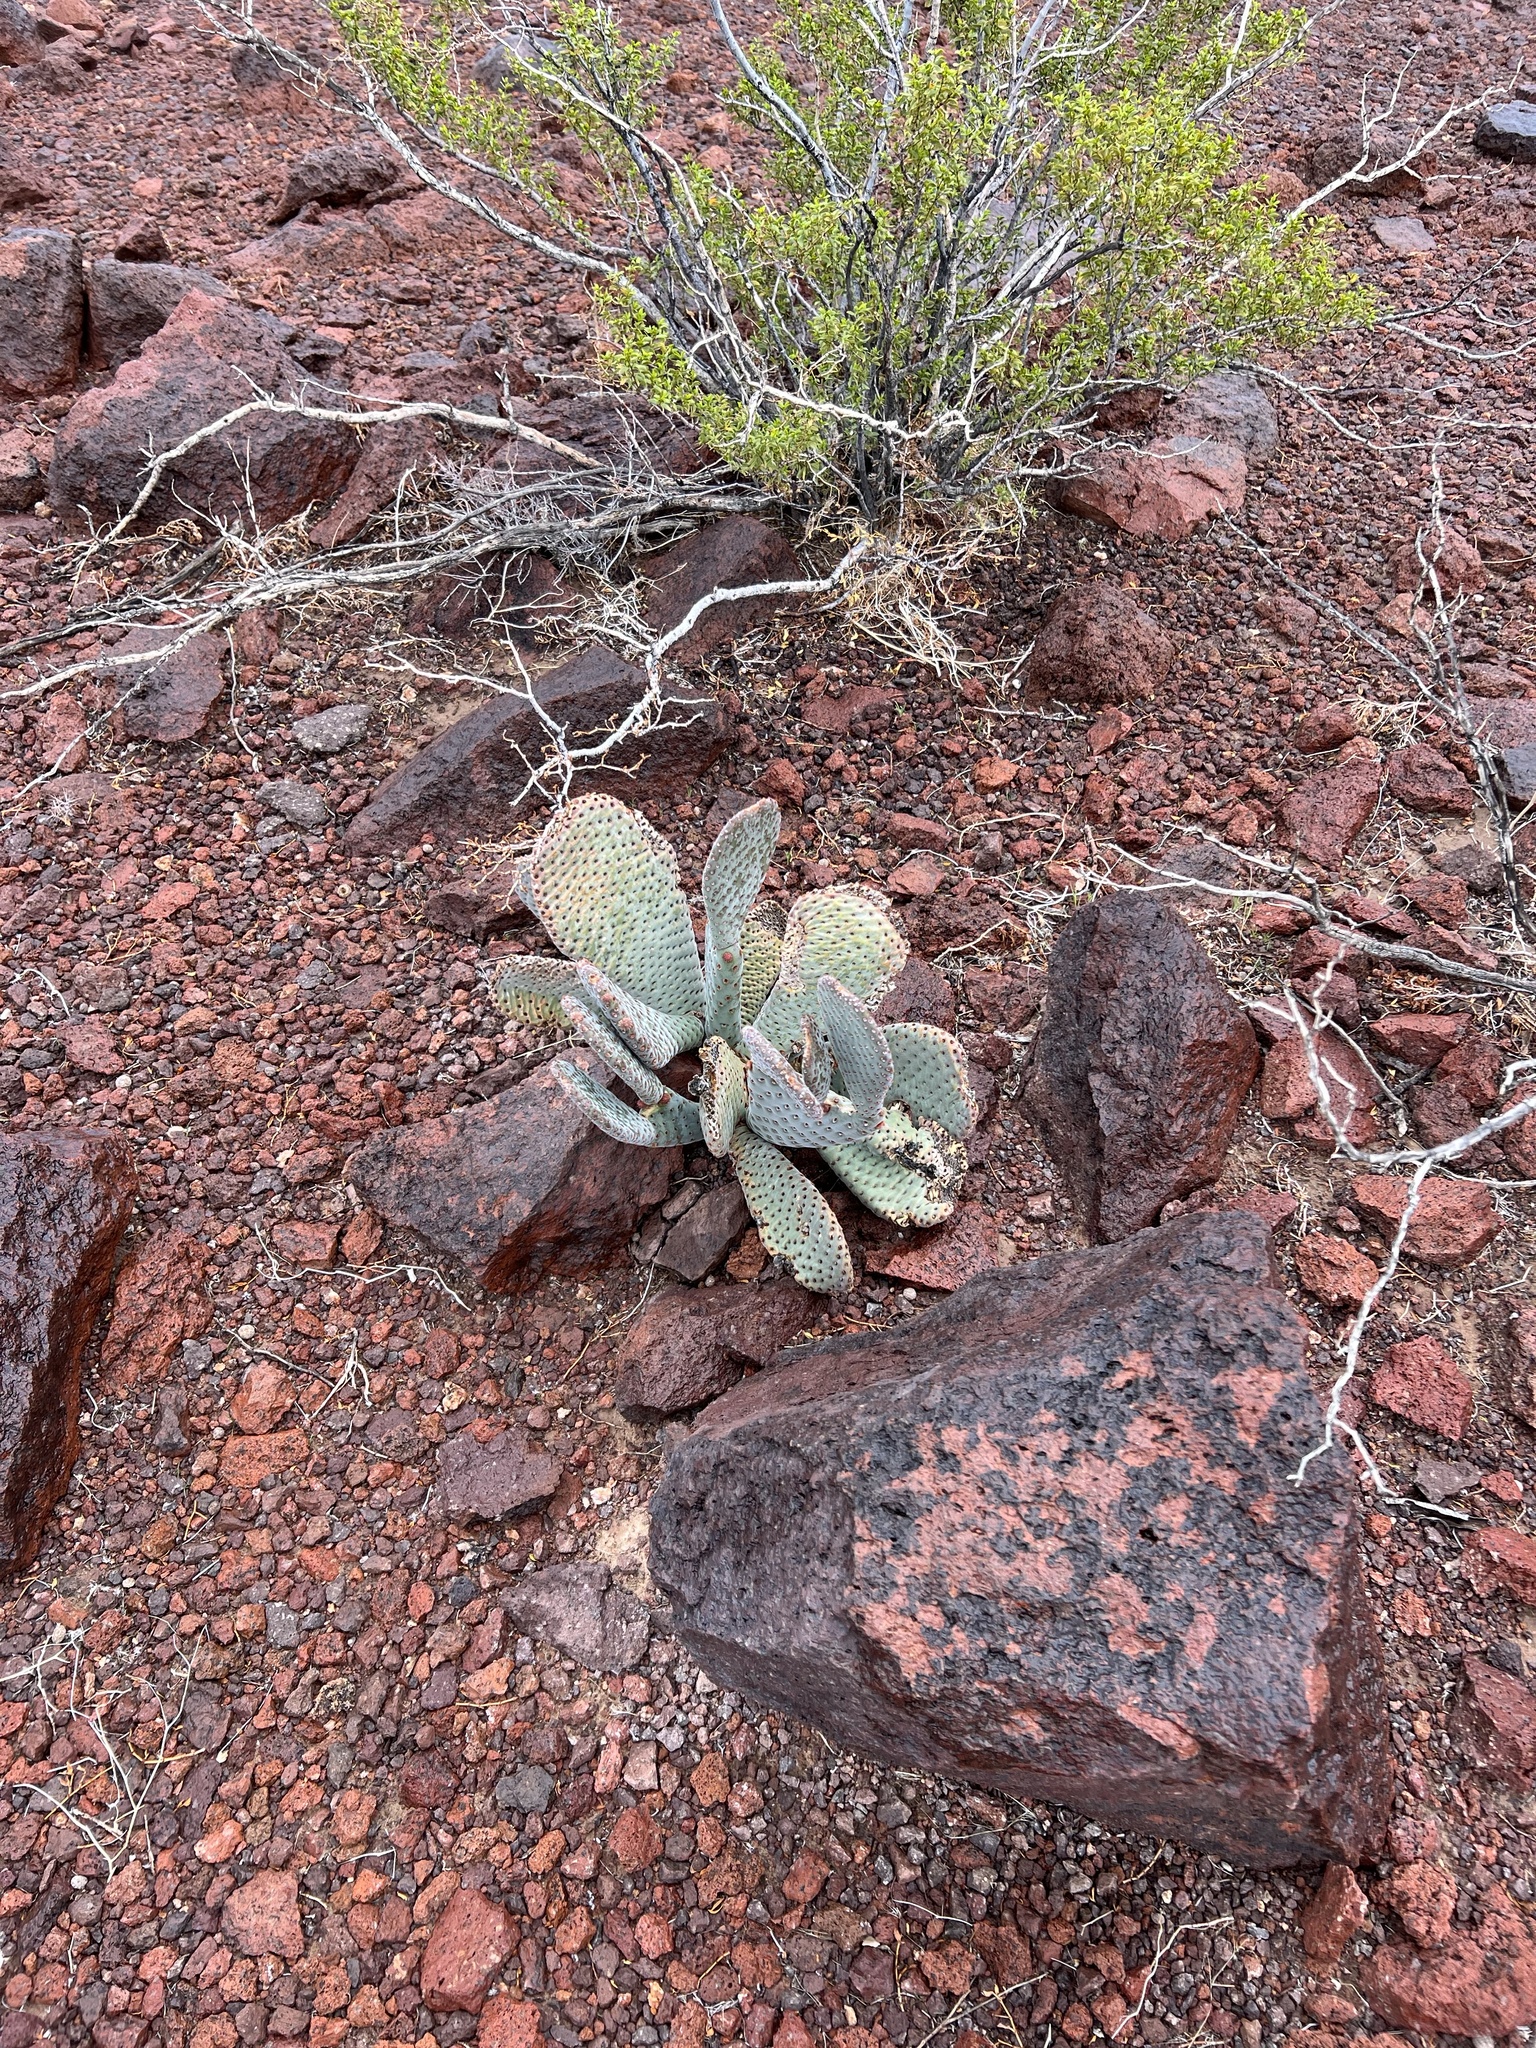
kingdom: Plantae
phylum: Tracheophyta
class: Magnoliopsida
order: Caryophyllales
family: Cactaceae
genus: Opuntia
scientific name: Opuntia basilaris
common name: Beavertail prickly-pear
